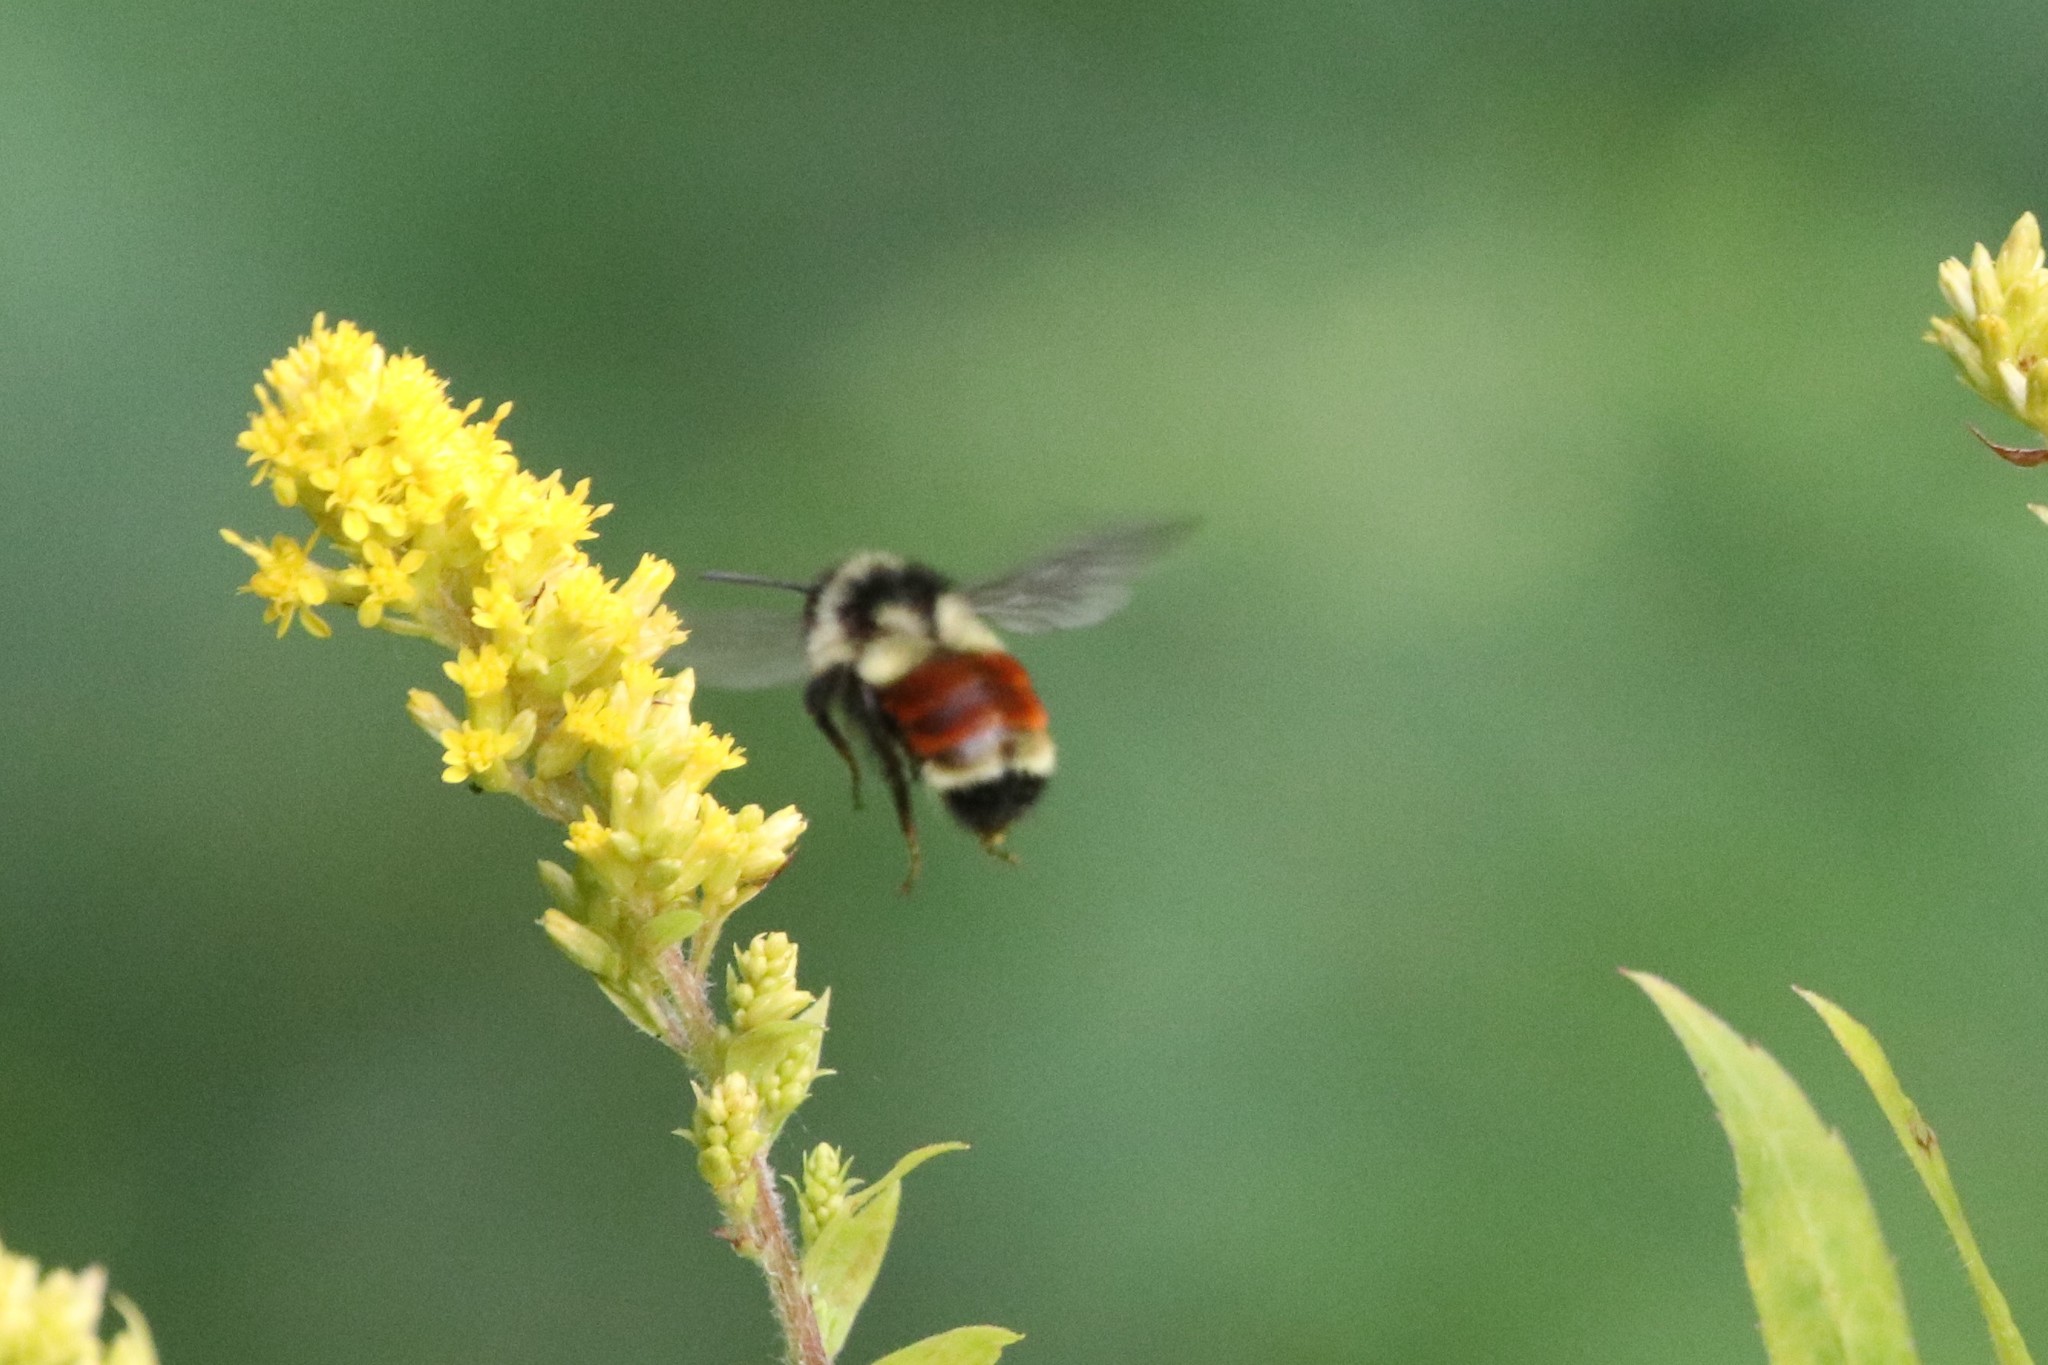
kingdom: Animalia
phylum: Arthropoda
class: Insecta
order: Hymenoptera
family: Apidae
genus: Bombus
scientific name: Bombus ternarius
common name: Tri-colored bumble bee
